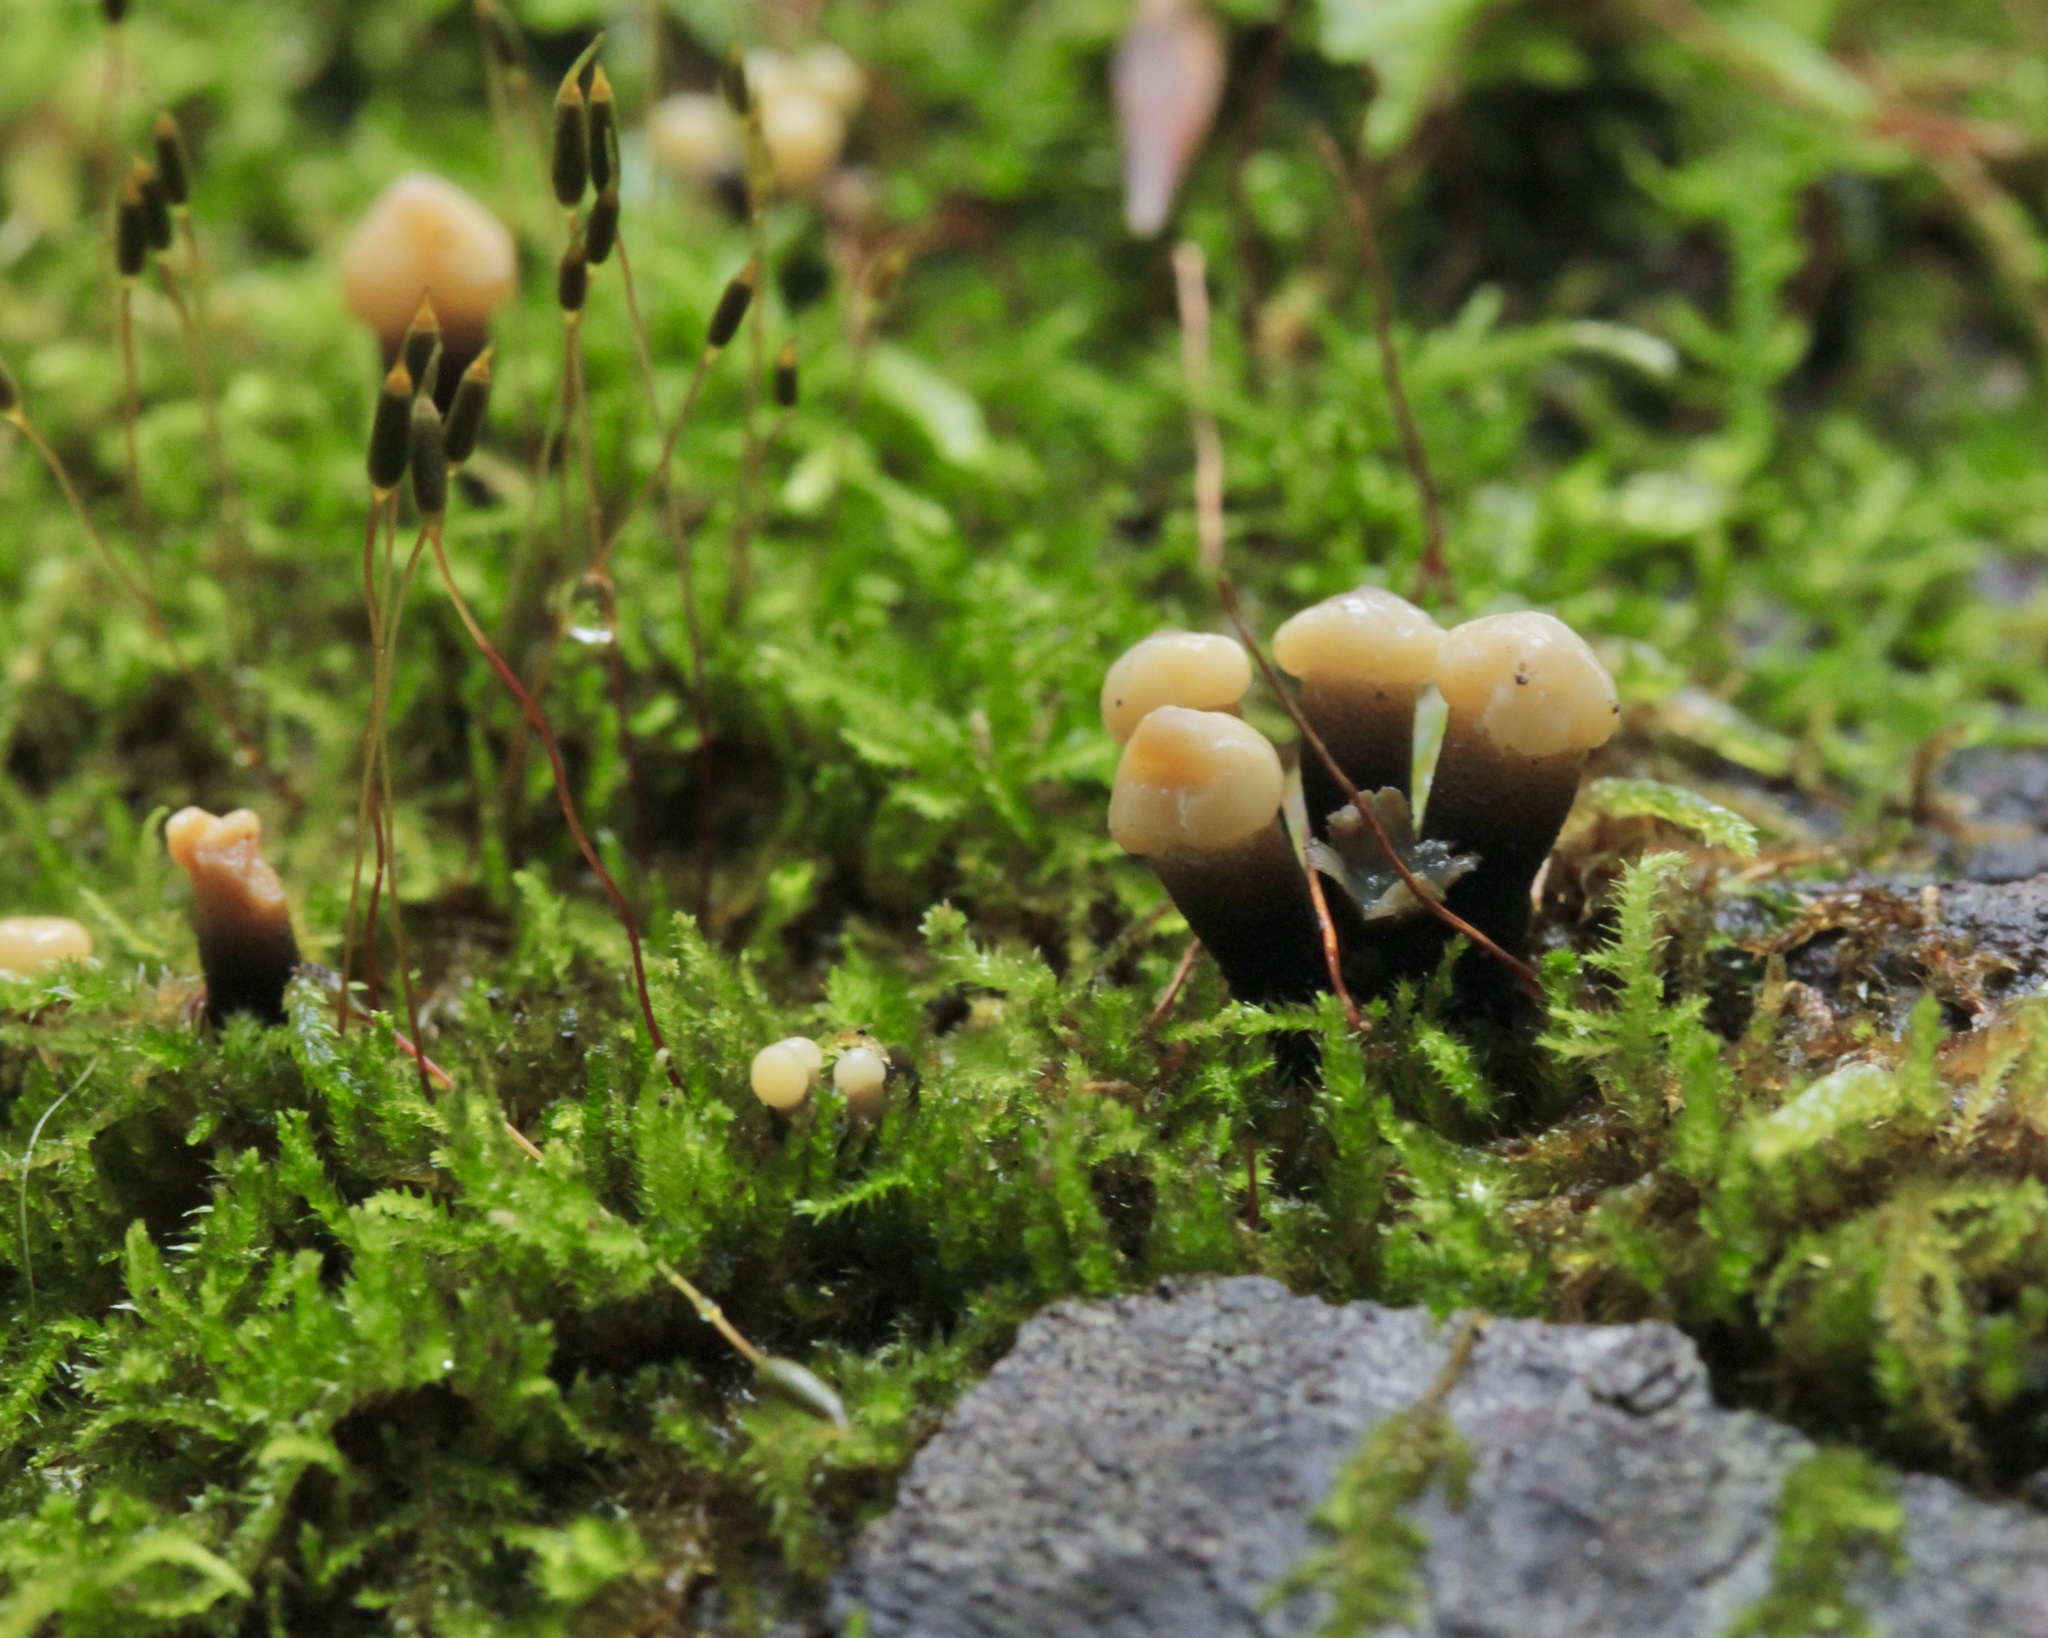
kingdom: Fungi
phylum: Ascomycota
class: Leotiomycetes
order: Helotiales
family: Bulgariaceae
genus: Holwaya
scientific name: Holwaya mucida
